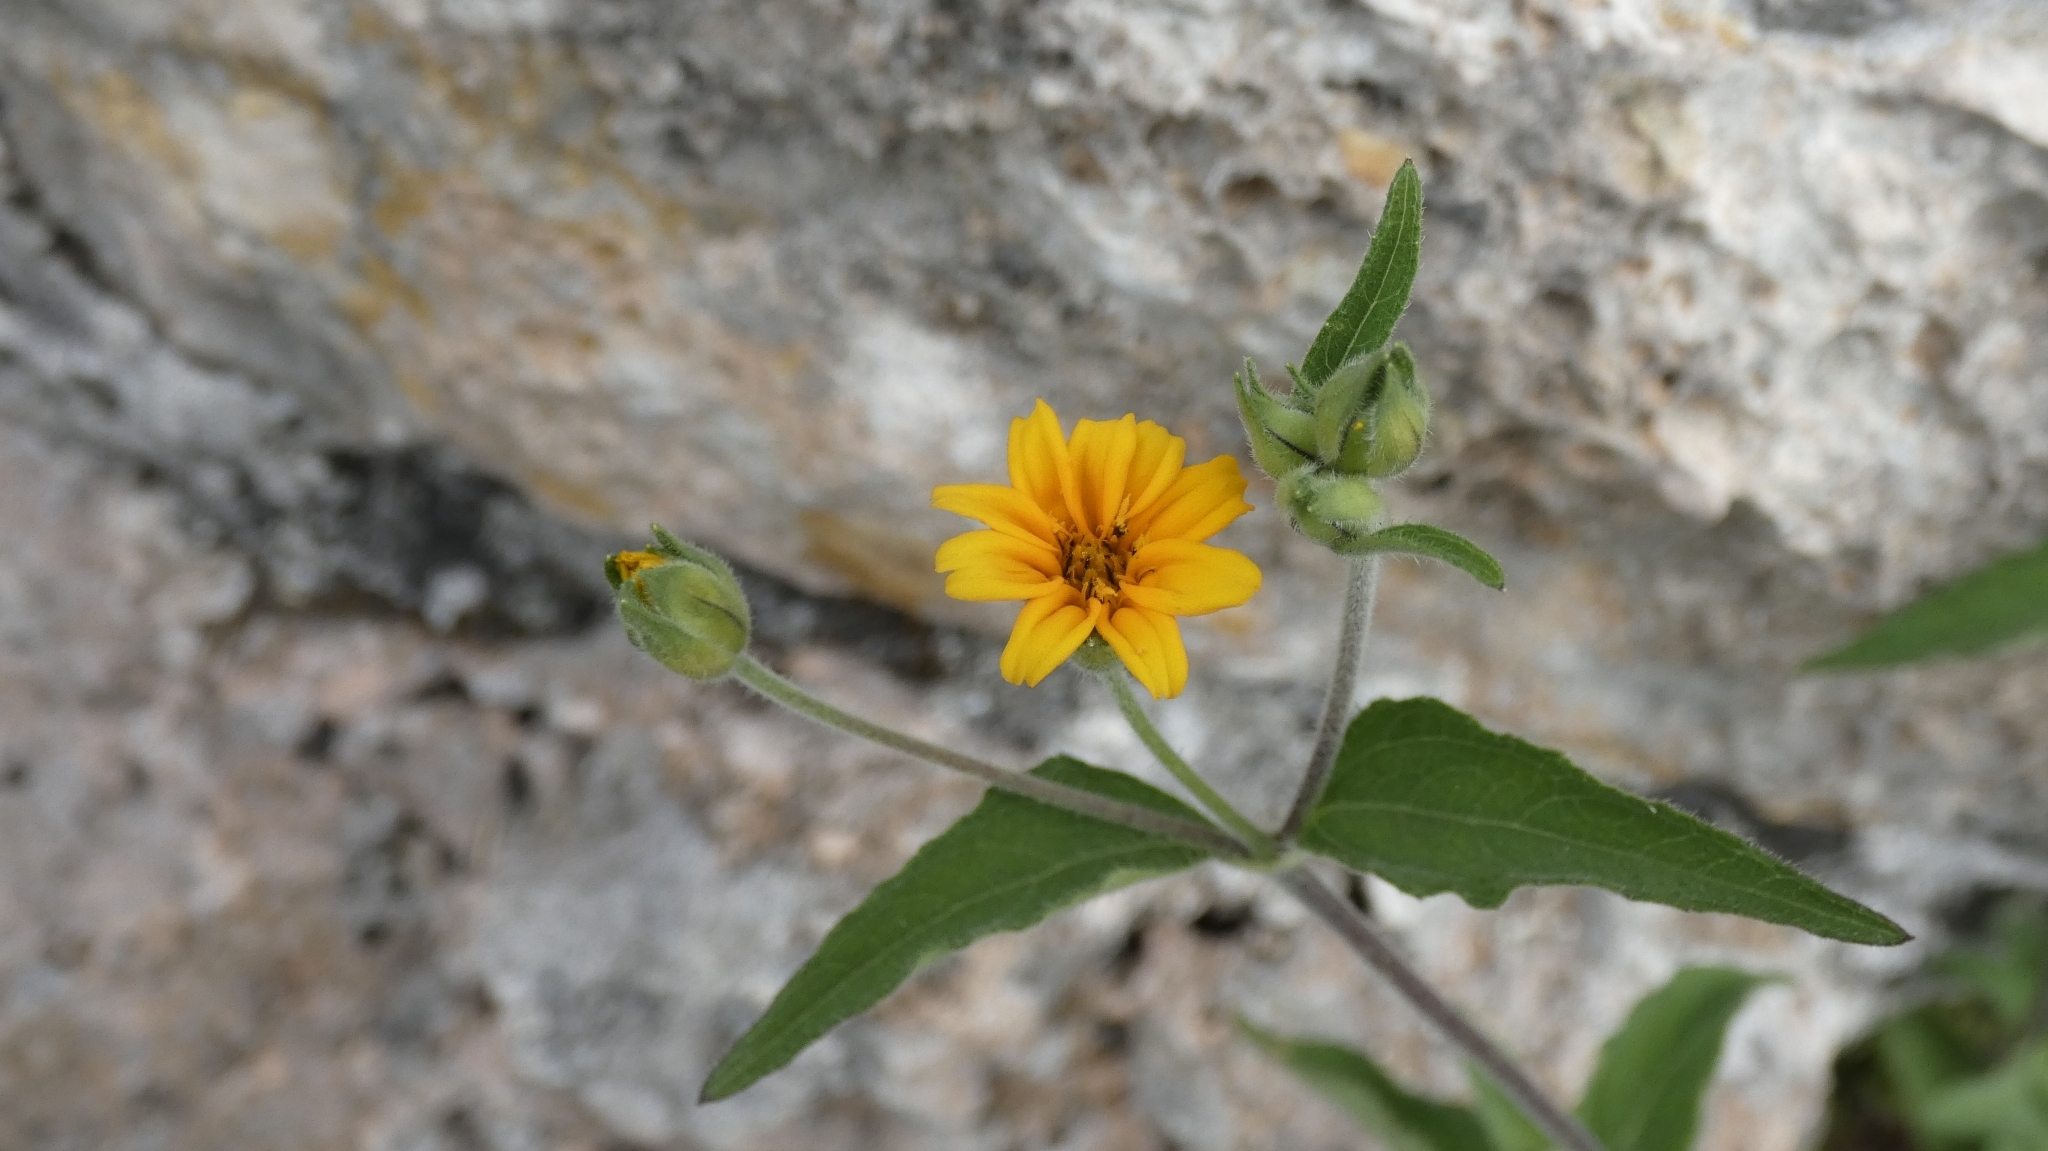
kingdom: Plantae
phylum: Tracheophyta
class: Magnoliopsida
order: Asterales
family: Asteraceae
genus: Wedelia
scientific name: Wedelia acapulcensis
